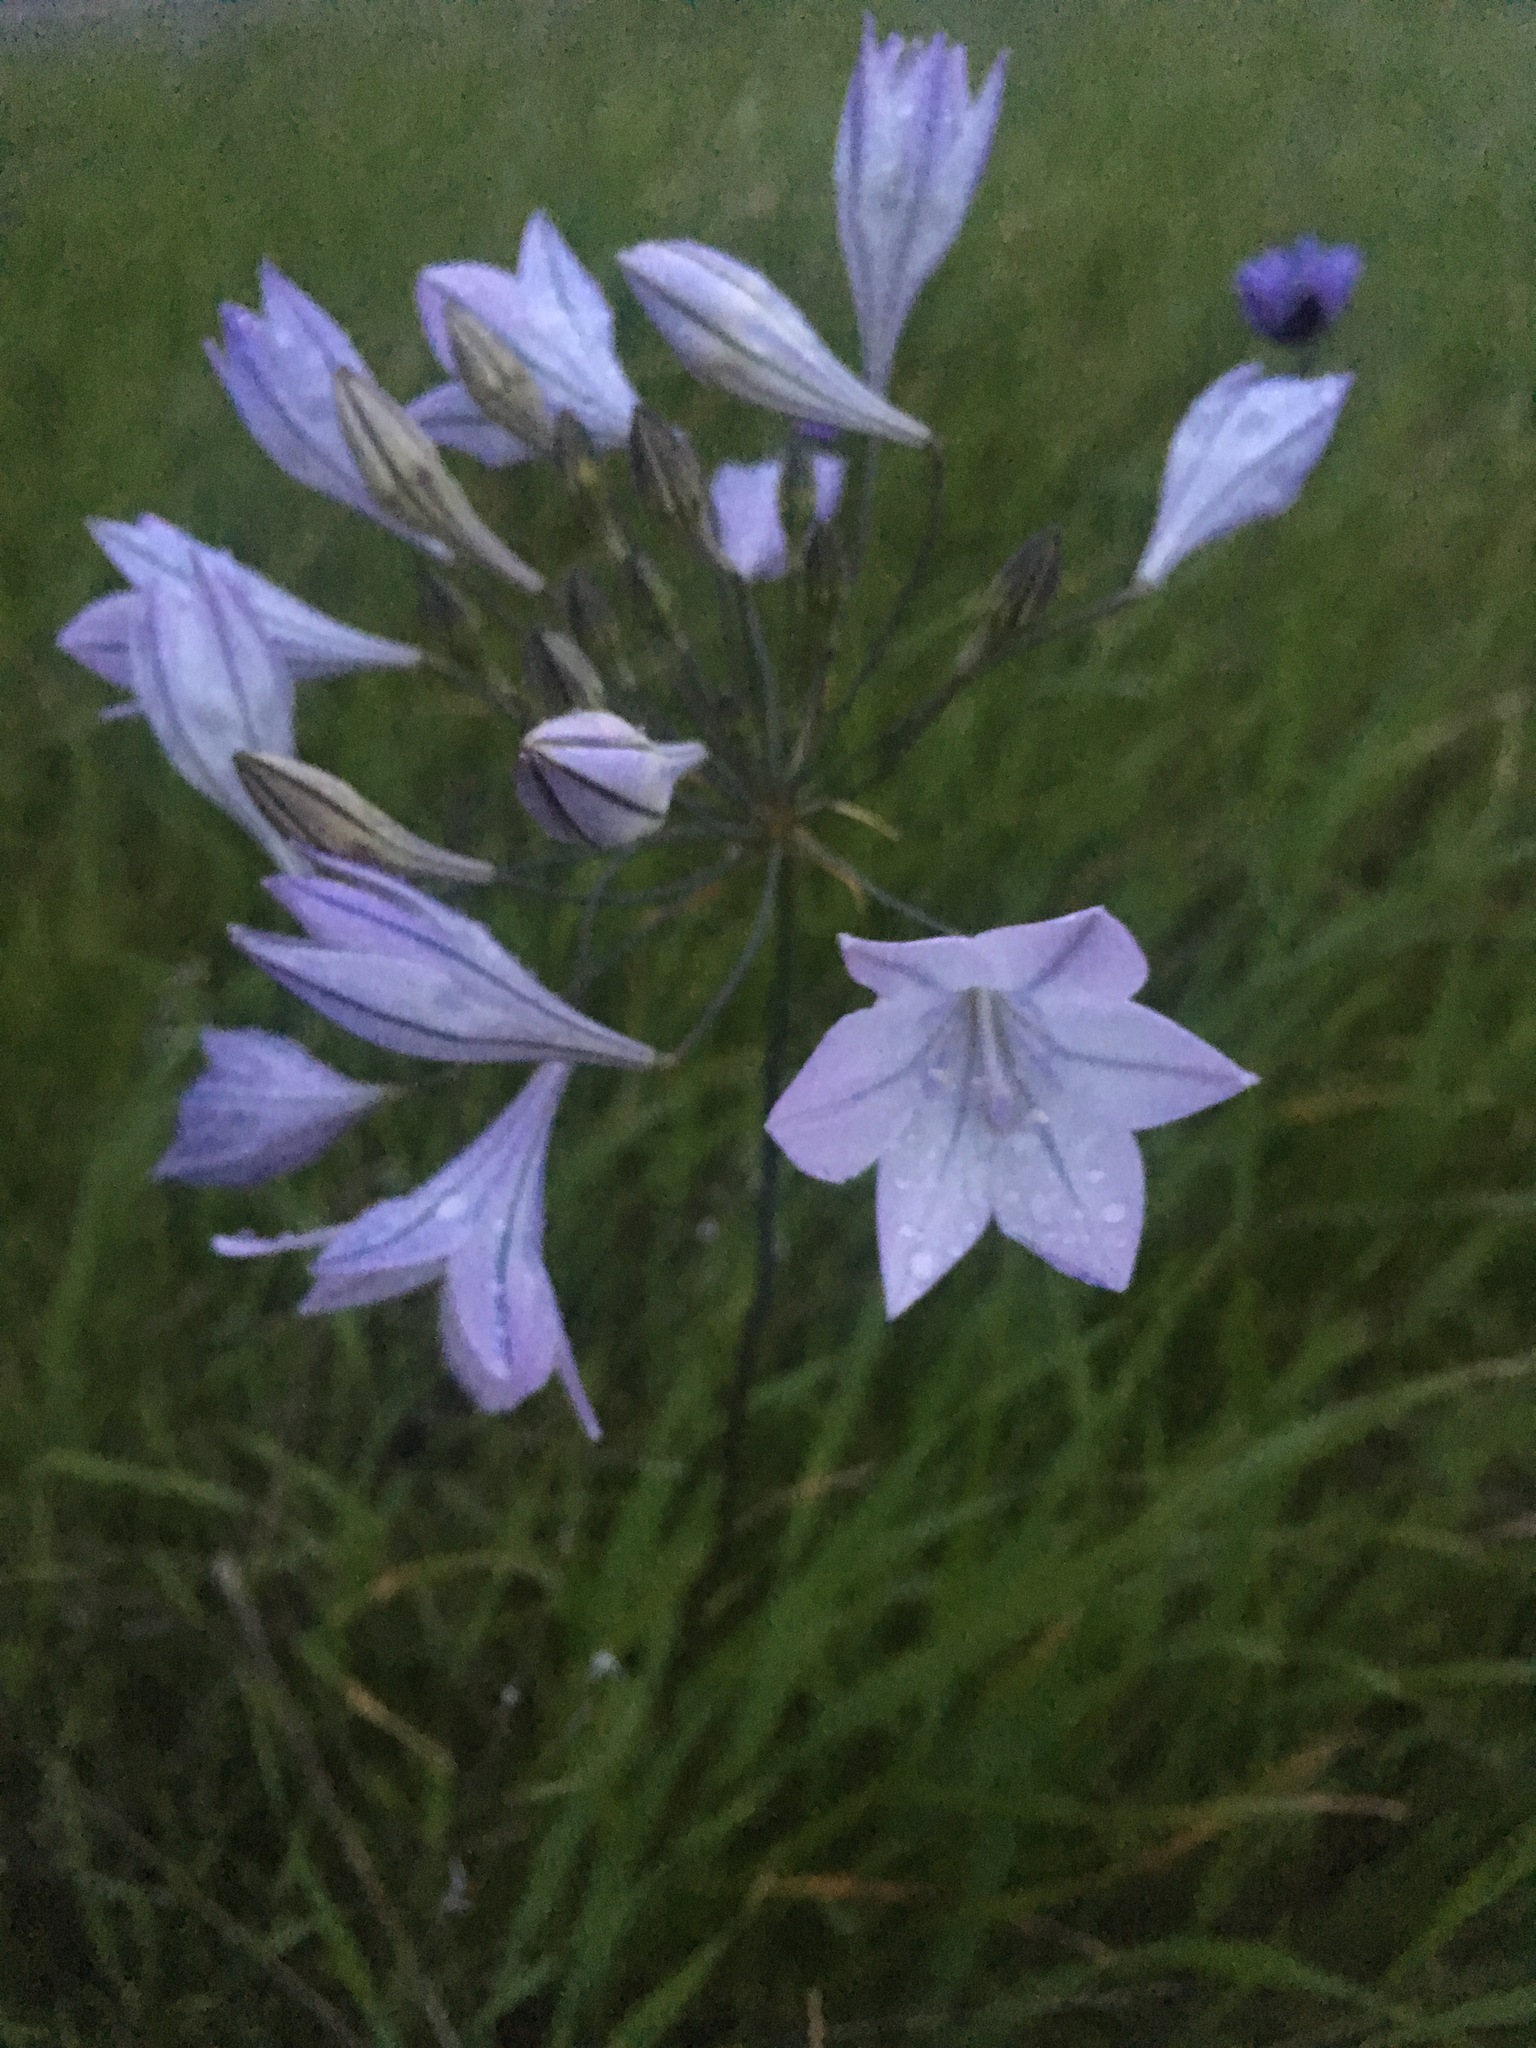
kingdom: Plantae
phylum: Tracheophyta
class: Liliopsida
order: Asparagales
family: Asparagaceae
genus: Triteleia
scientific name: Triteleia laxa
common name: Triplet-lily
